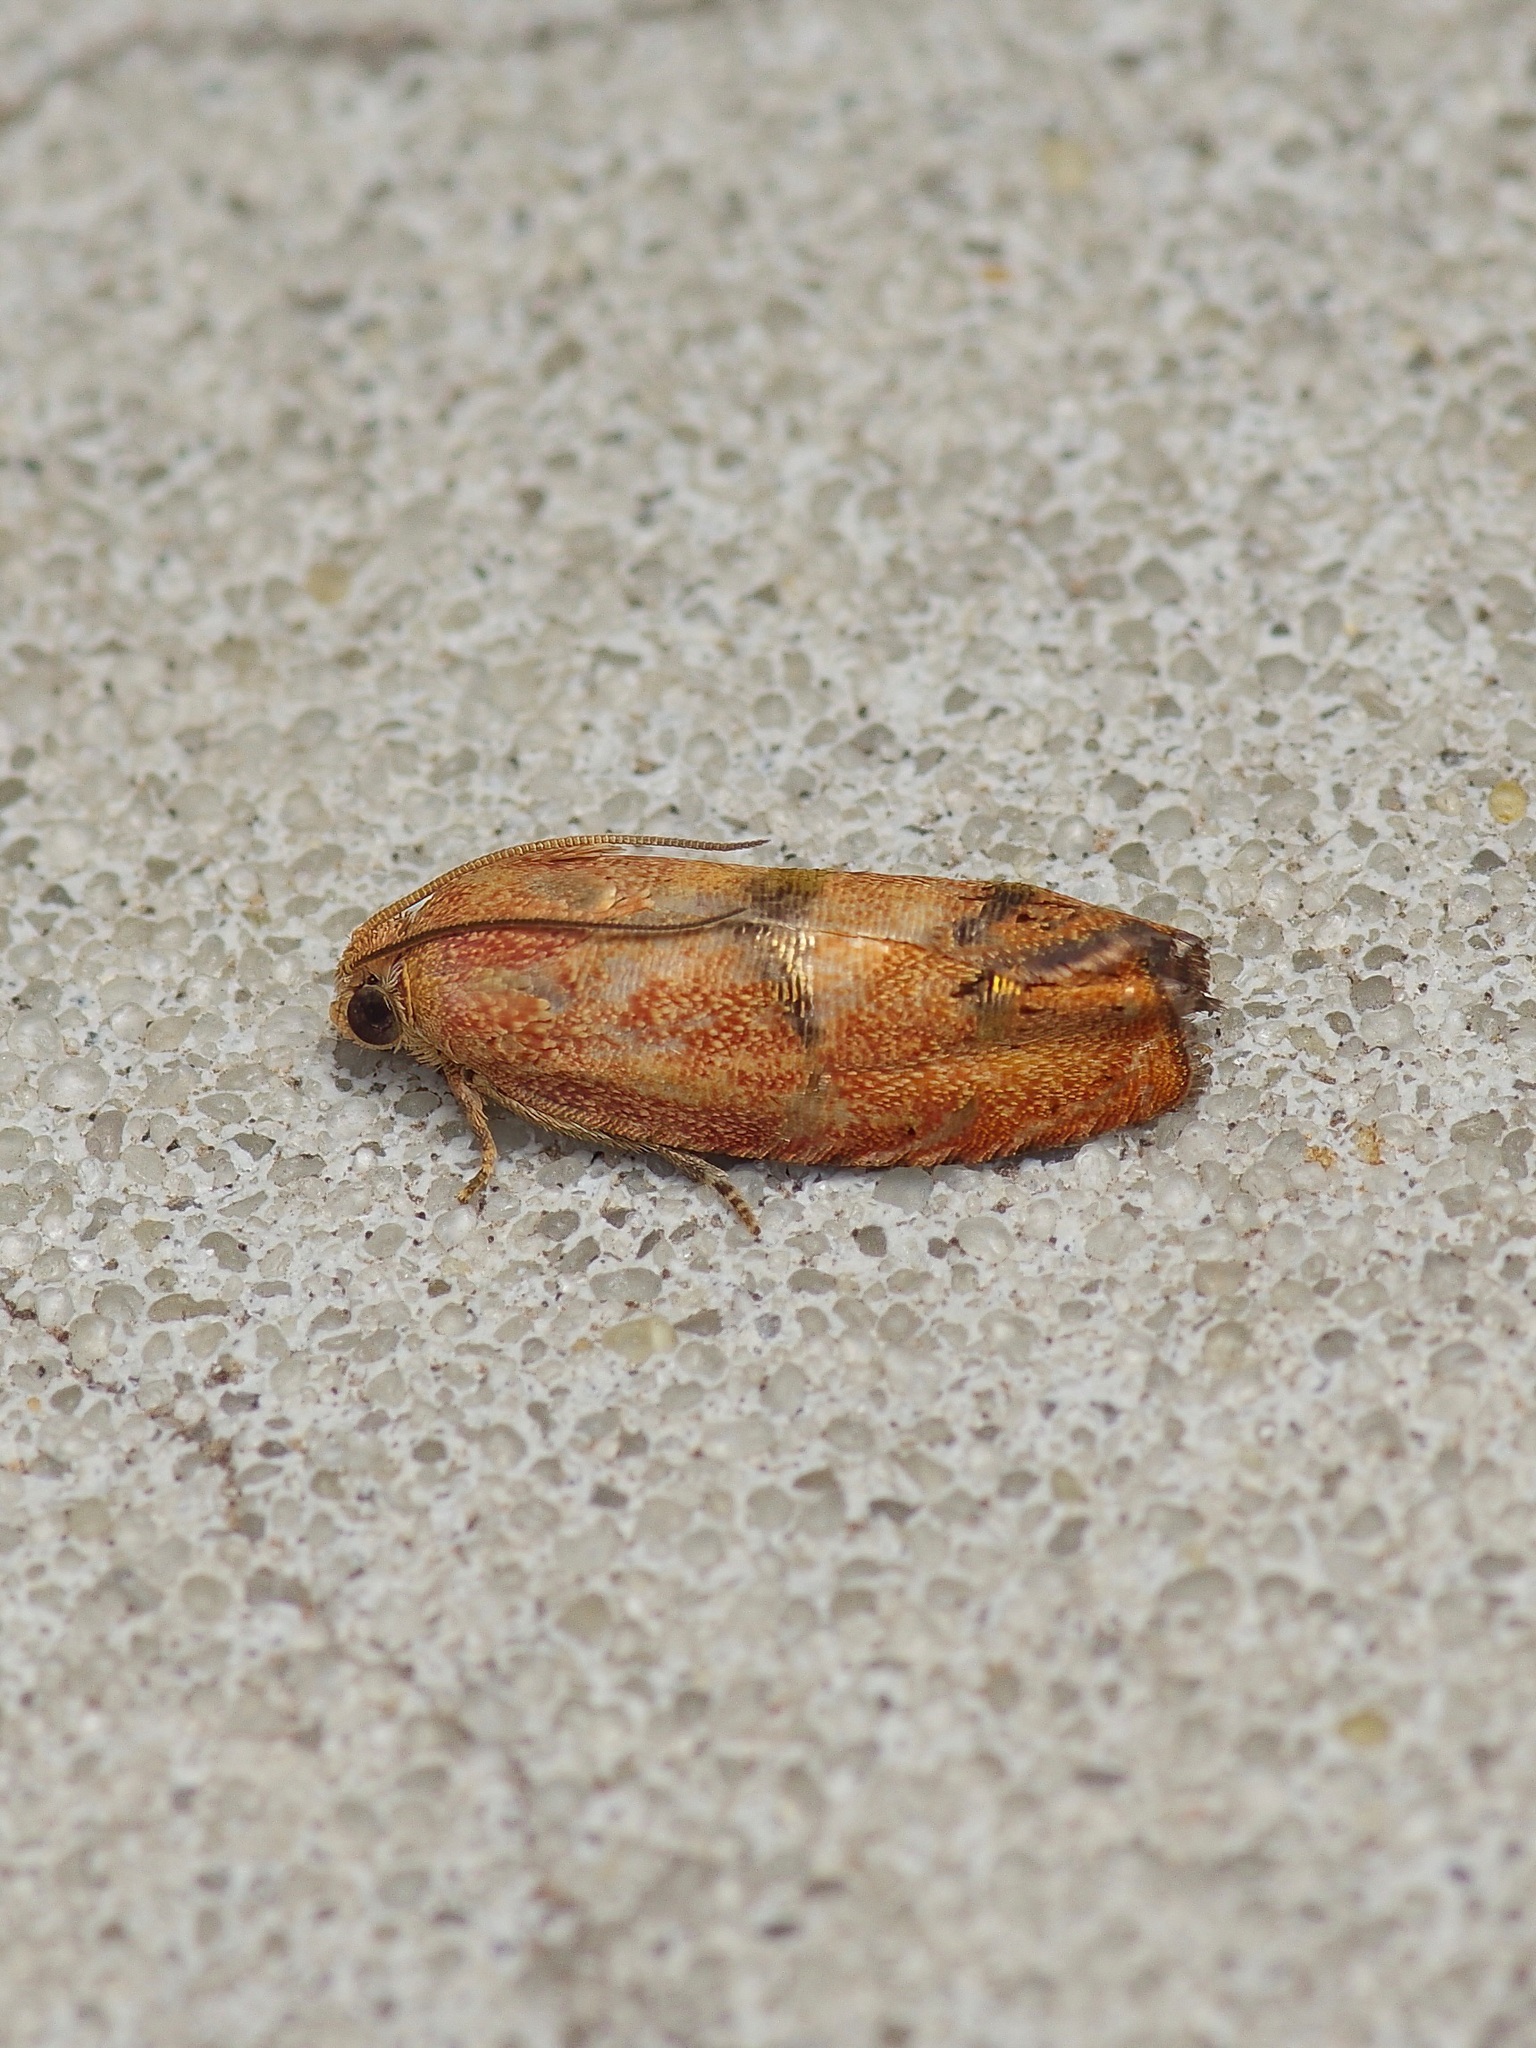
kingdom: Animalia
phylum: Arthropoda
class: Insecta
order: Lepidoptera
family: Tortricidae
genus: Cydia
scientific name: Cydia latiferreana
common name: Filbertworm moth
